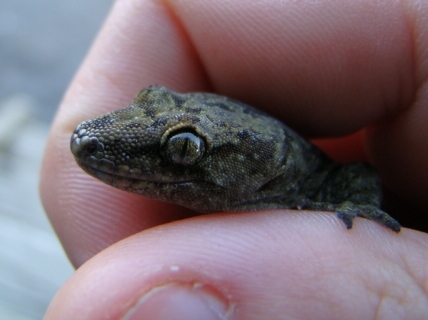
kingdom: Animalia
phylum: Chordata
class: Squamata
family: Diplodactylidae
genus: Woodworthia
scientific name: Woodworthia maculata
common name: Raukawa gecko
